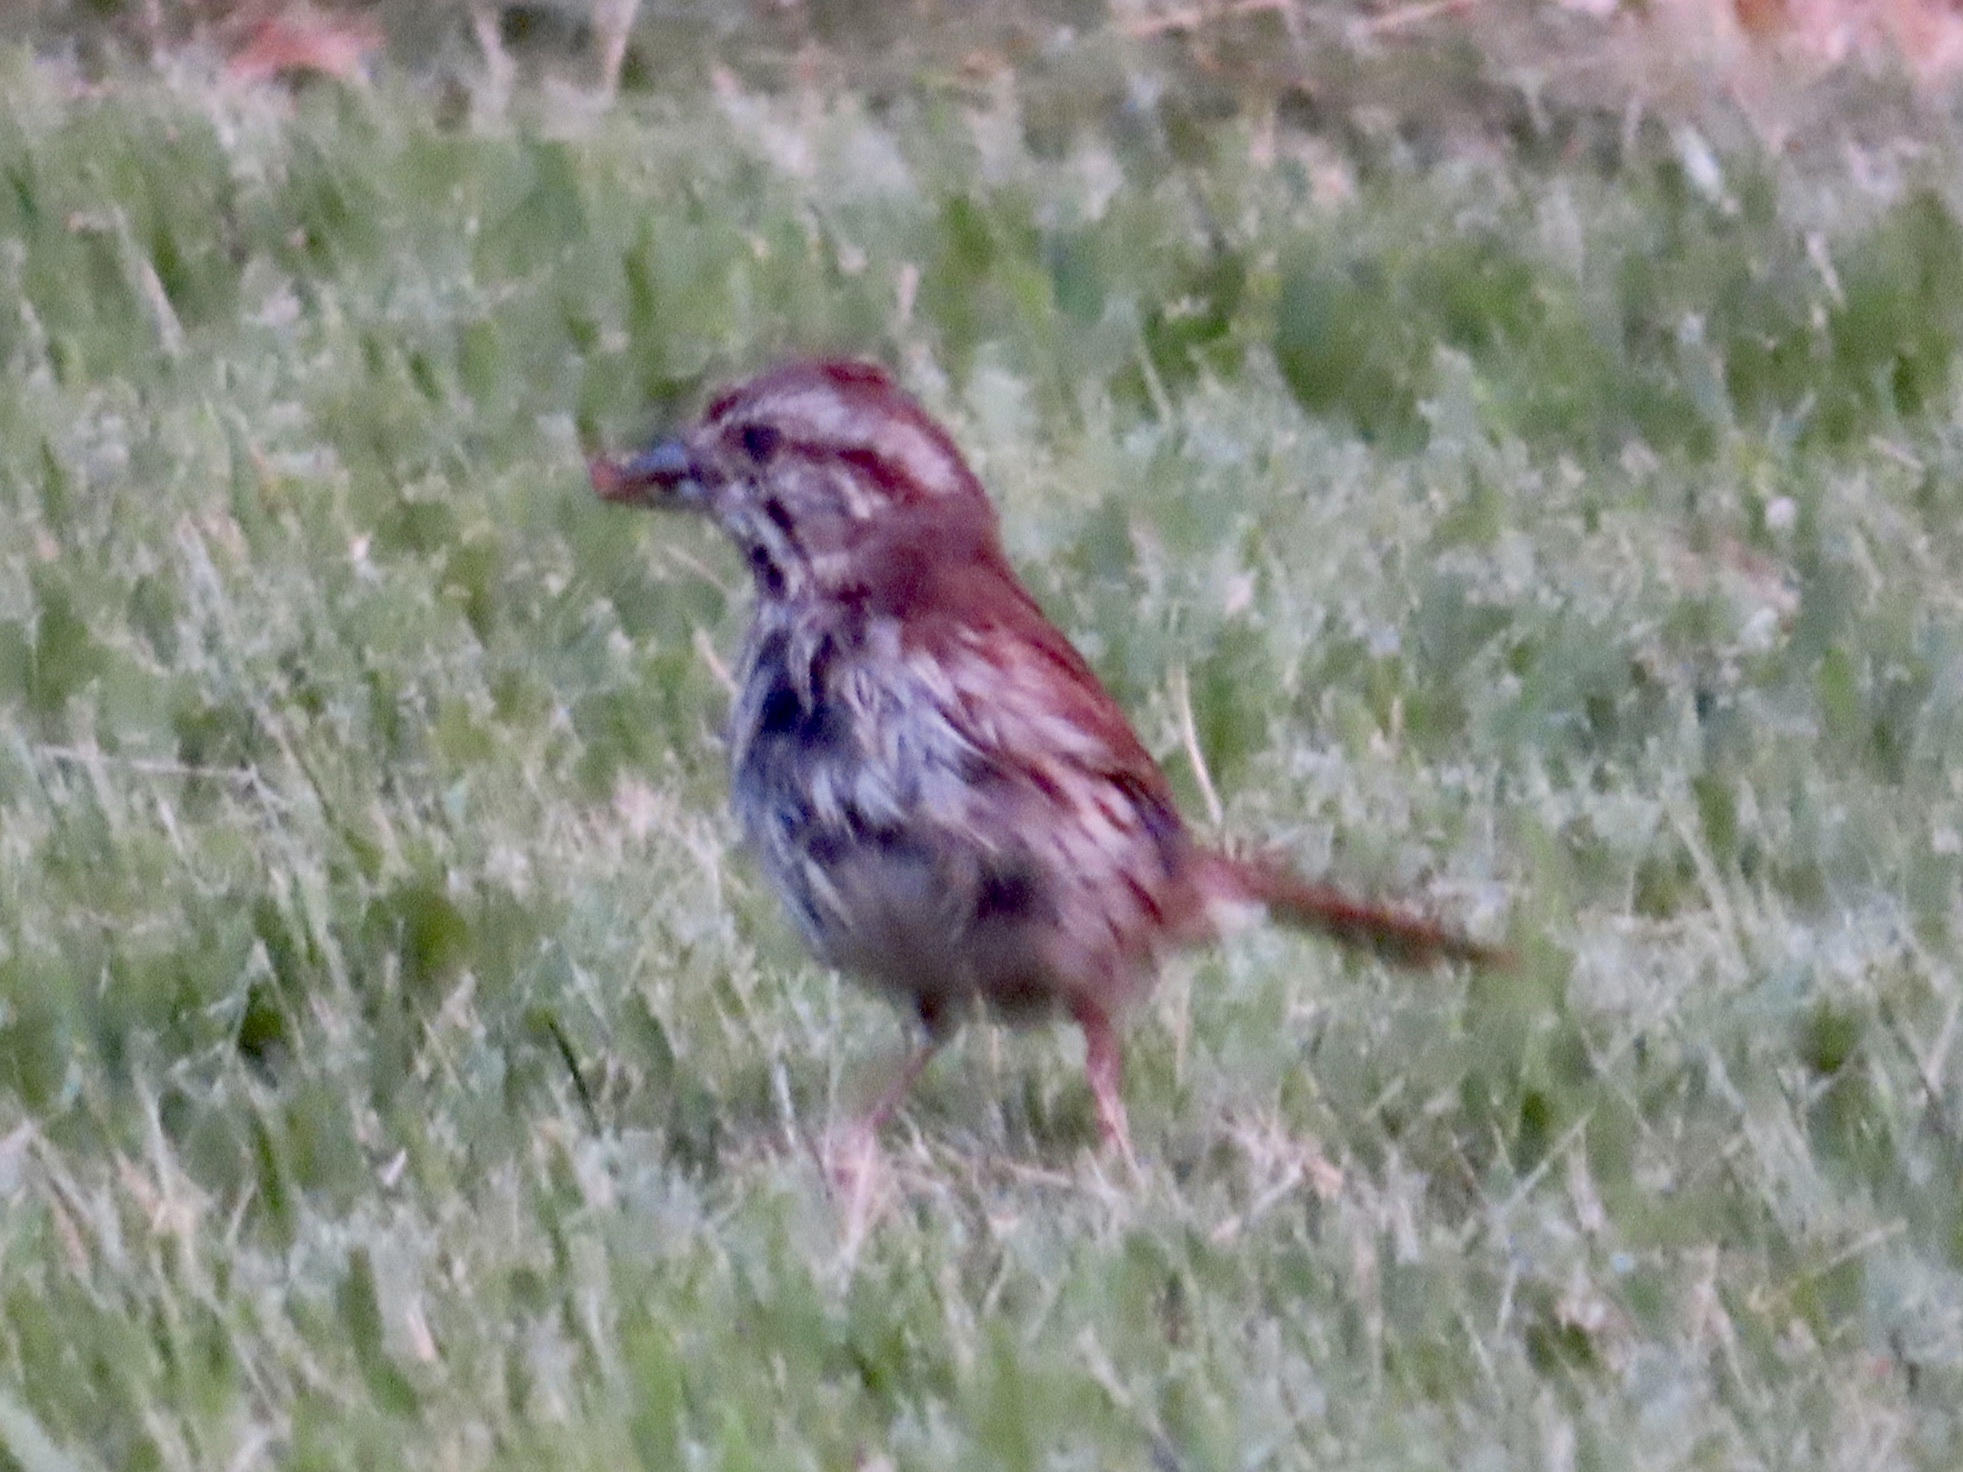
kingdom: Animalia
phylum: Chordata
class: Aves
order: Passeriformes
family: Passerellidae
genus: Melospiza
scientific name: Melospiza melodia
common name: Song sparrow
